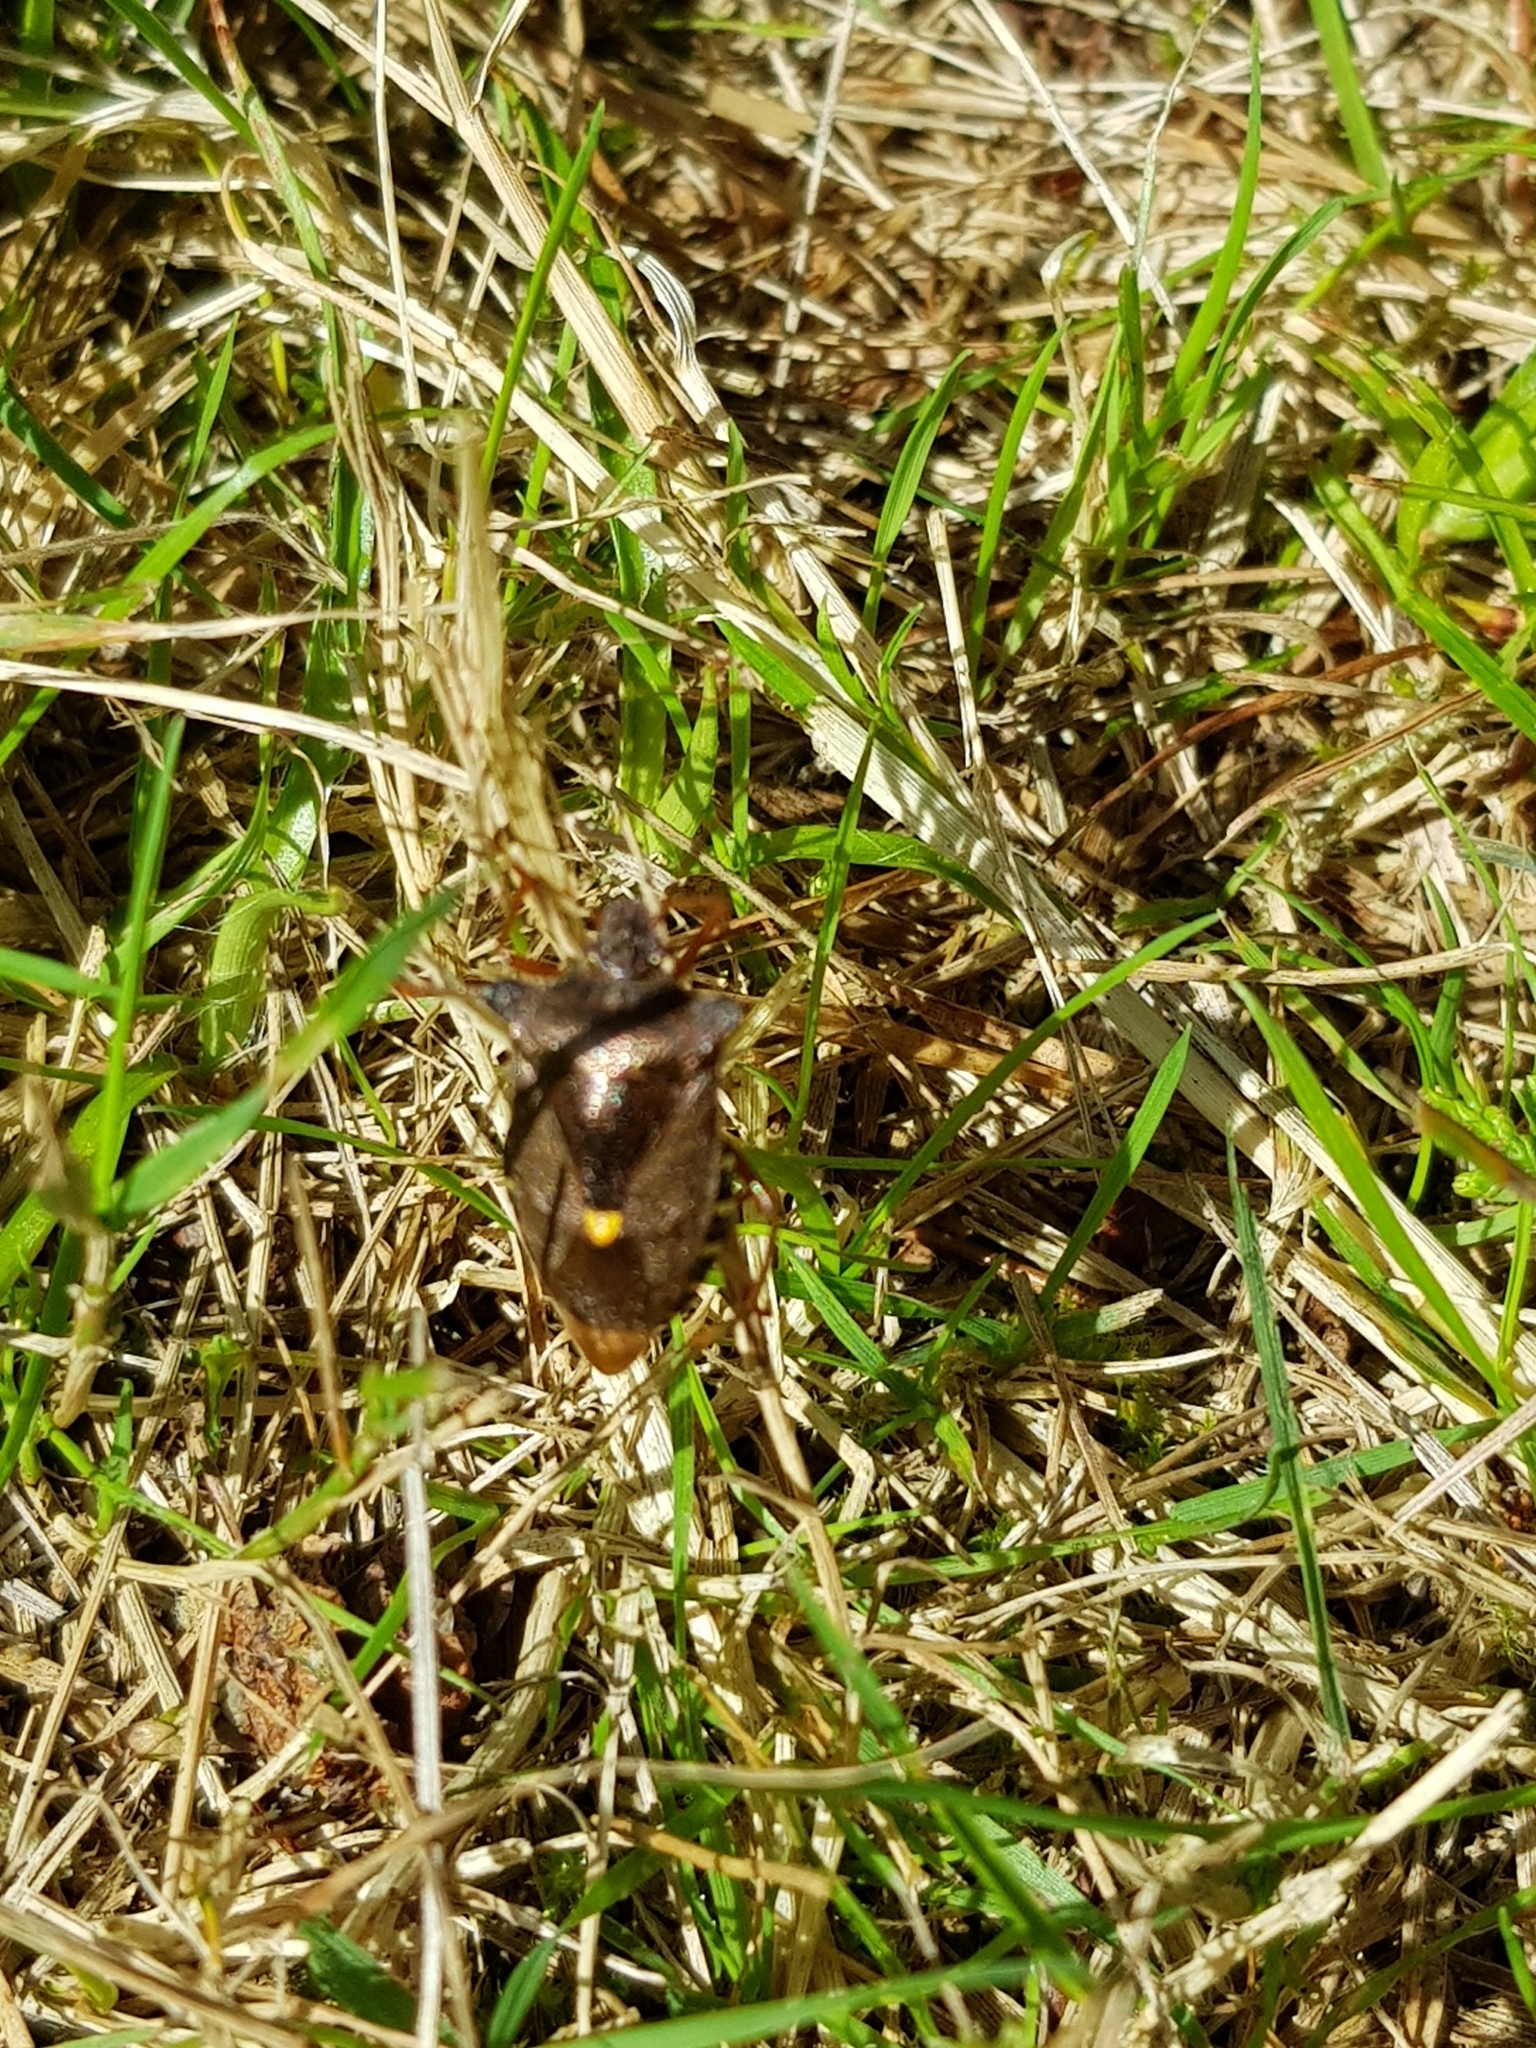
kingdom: Animalia
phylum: Arthropoda
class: Insecta
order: Hemiptera
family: Pentatomidae
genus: Pentatoma
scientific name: Pentatoma rufipes
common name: Forest bug
